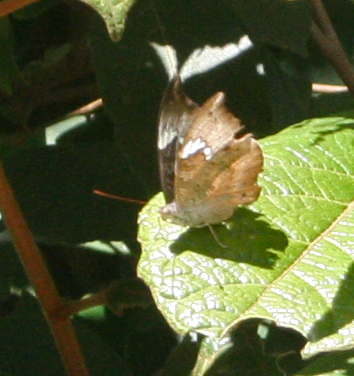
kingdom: Animalia
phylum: Arthropoda
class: Insecta
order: Lepidoptera
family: Nymphalidae
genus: Euthalia
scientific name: Euthalia anosia
